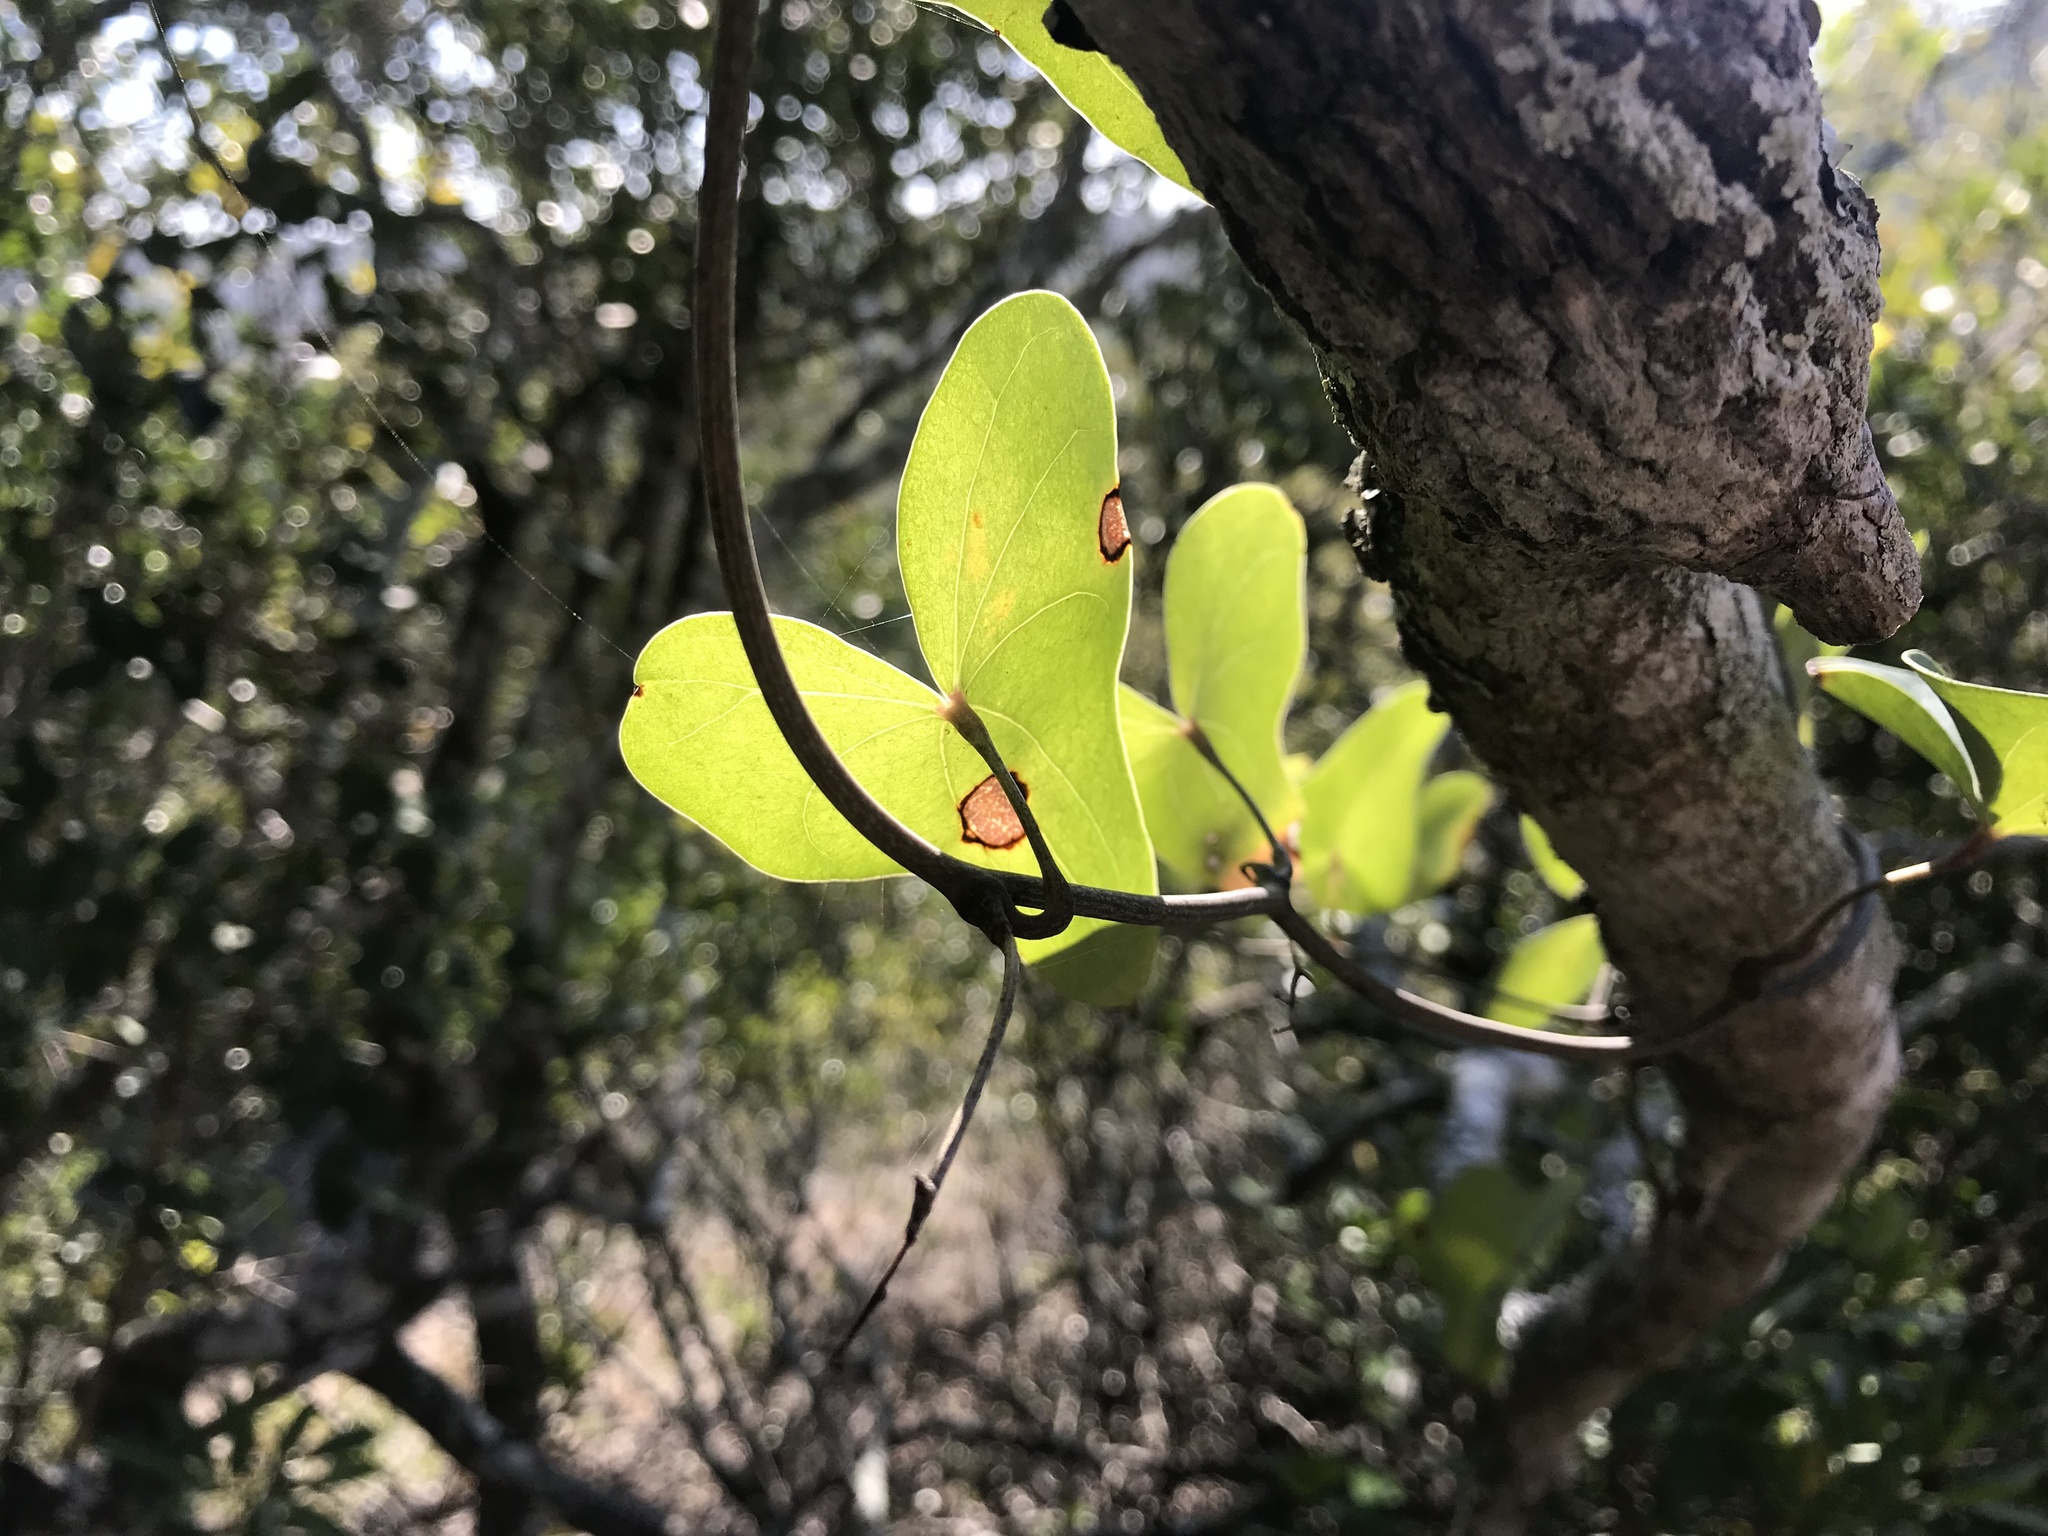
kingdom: Plantae
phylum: Tracheophyta
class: Liliopsida
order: Dioscoreales
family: Dioscoreaceae
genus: Dioscorea
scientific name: Dioscorea sylvatica
